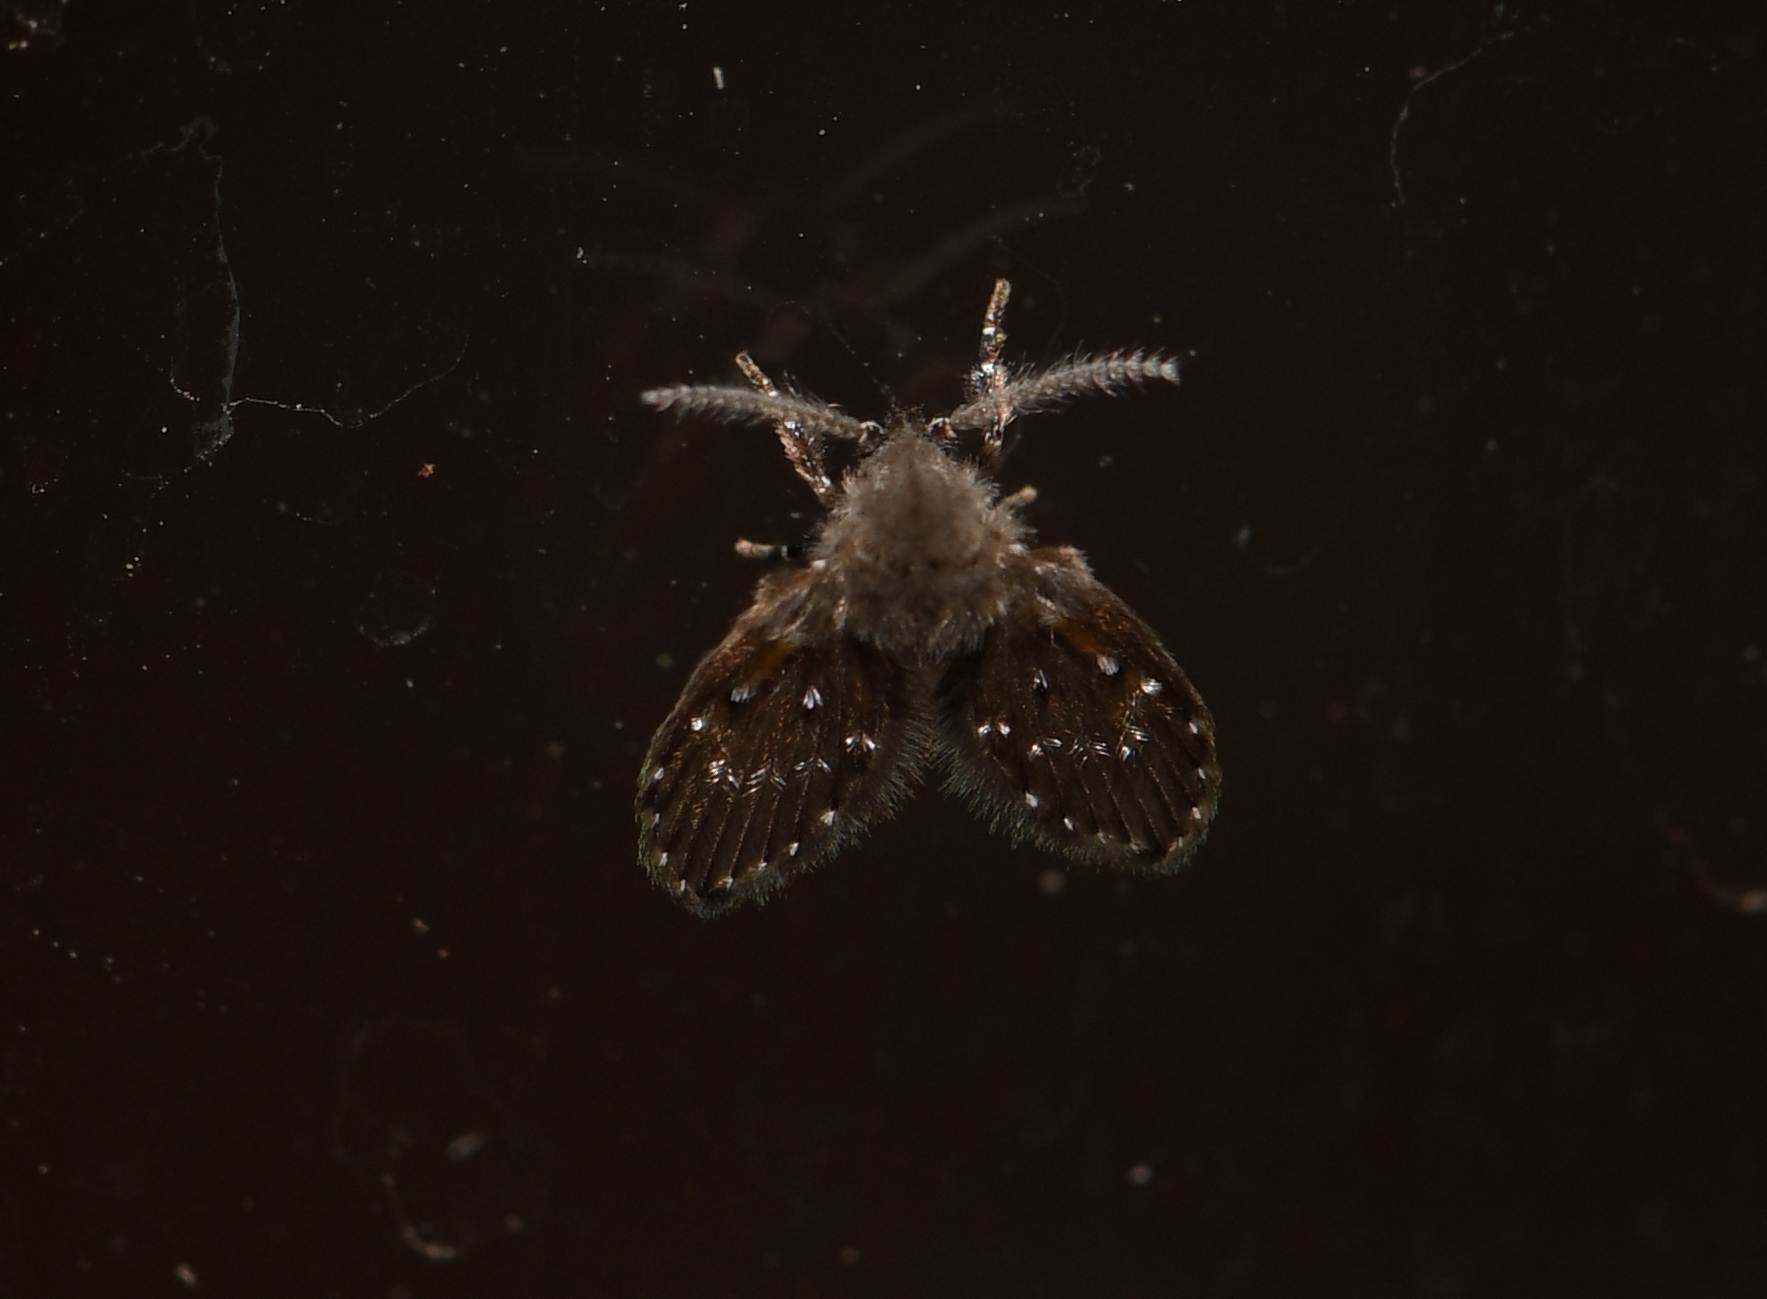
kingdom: Animalia
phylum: Arthropoda
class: Insecta
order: Diptera
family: Psychodidae
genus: Clogmia
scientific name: Clogmia albipunctatus
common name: White-spotted moth fly
